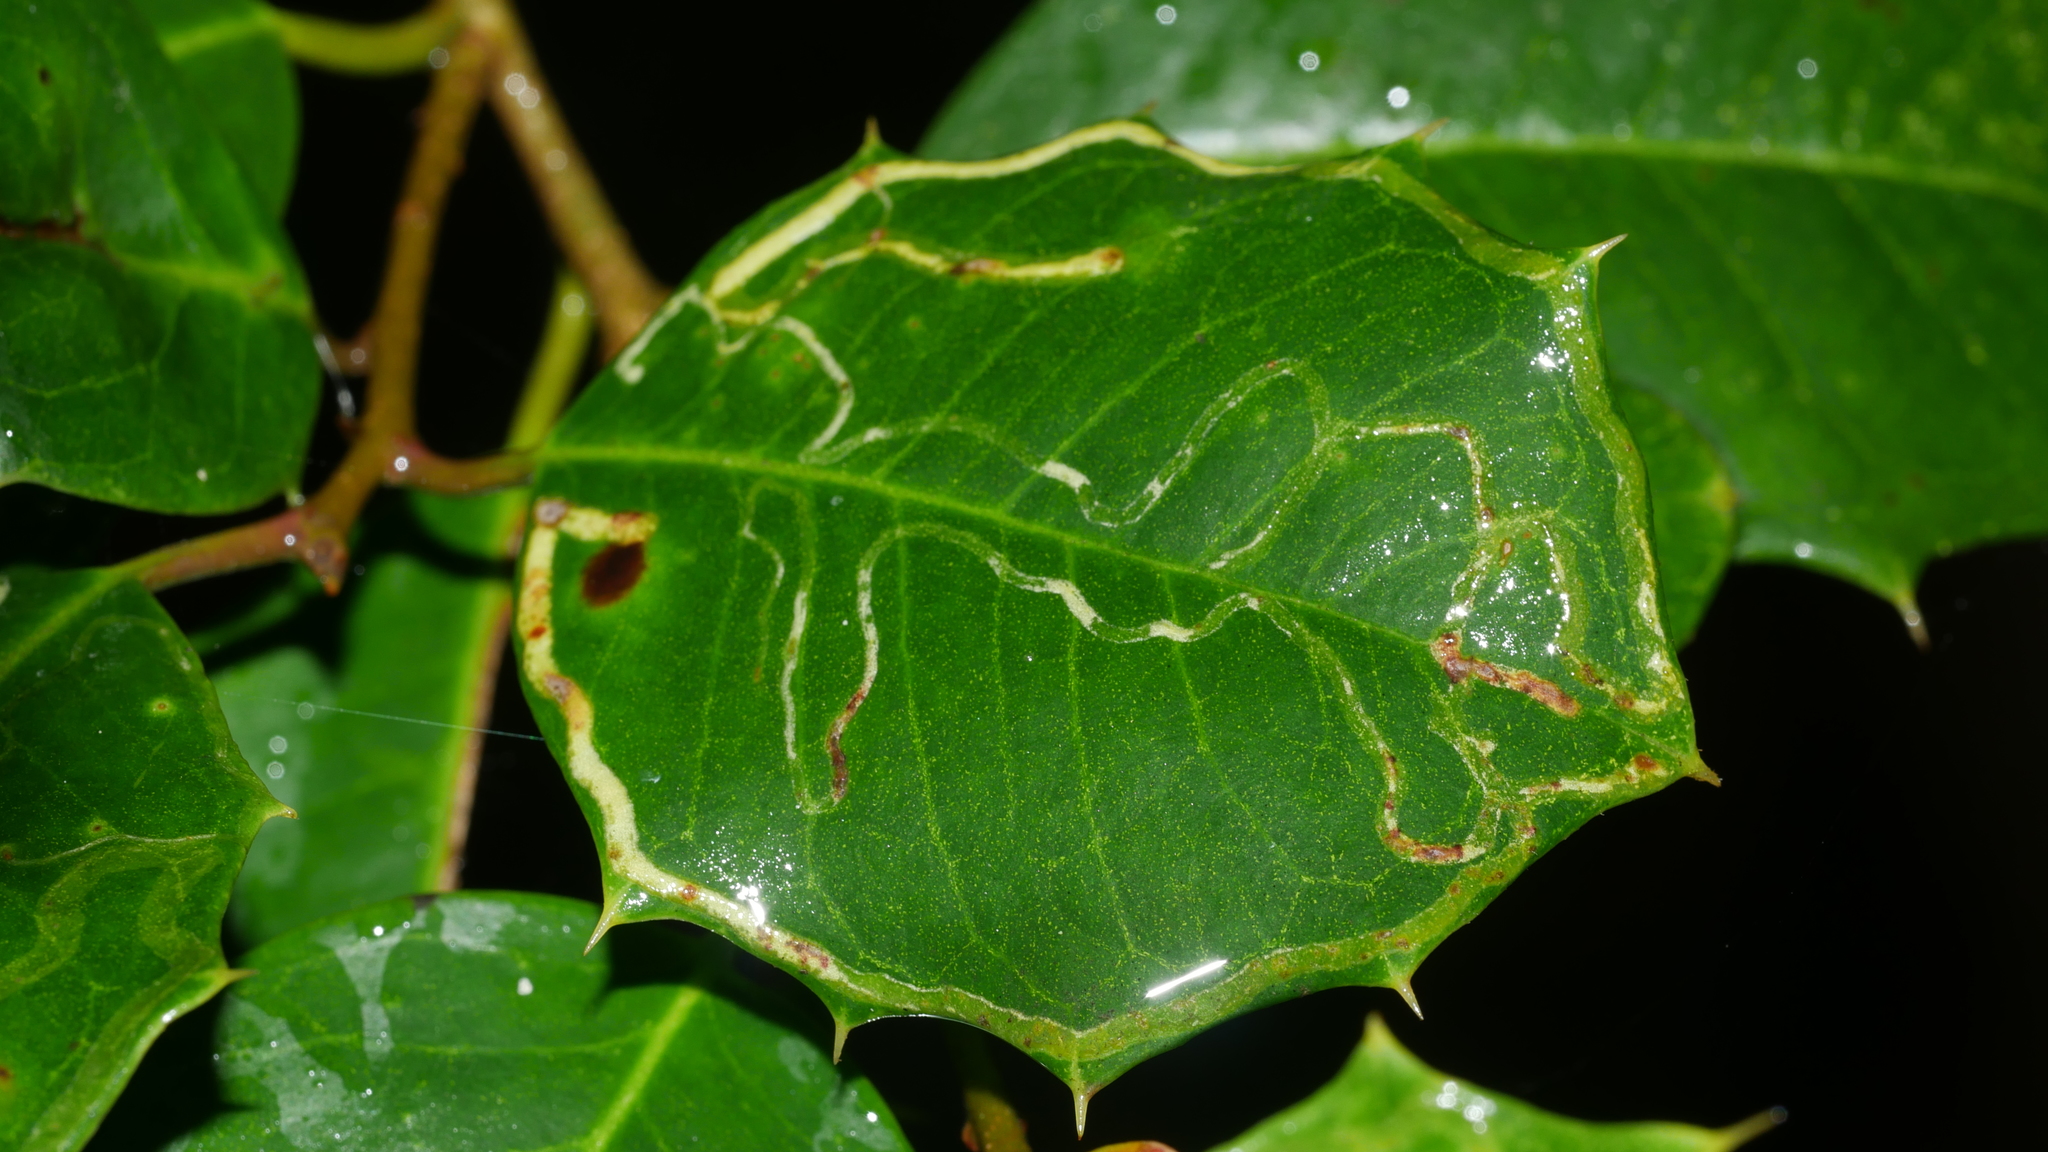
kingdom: Animalia
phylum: Arthropoda
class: Insecta
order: Diptera
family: Agromyzidae
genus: Phytomyza
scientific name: Phytomyza opacae
